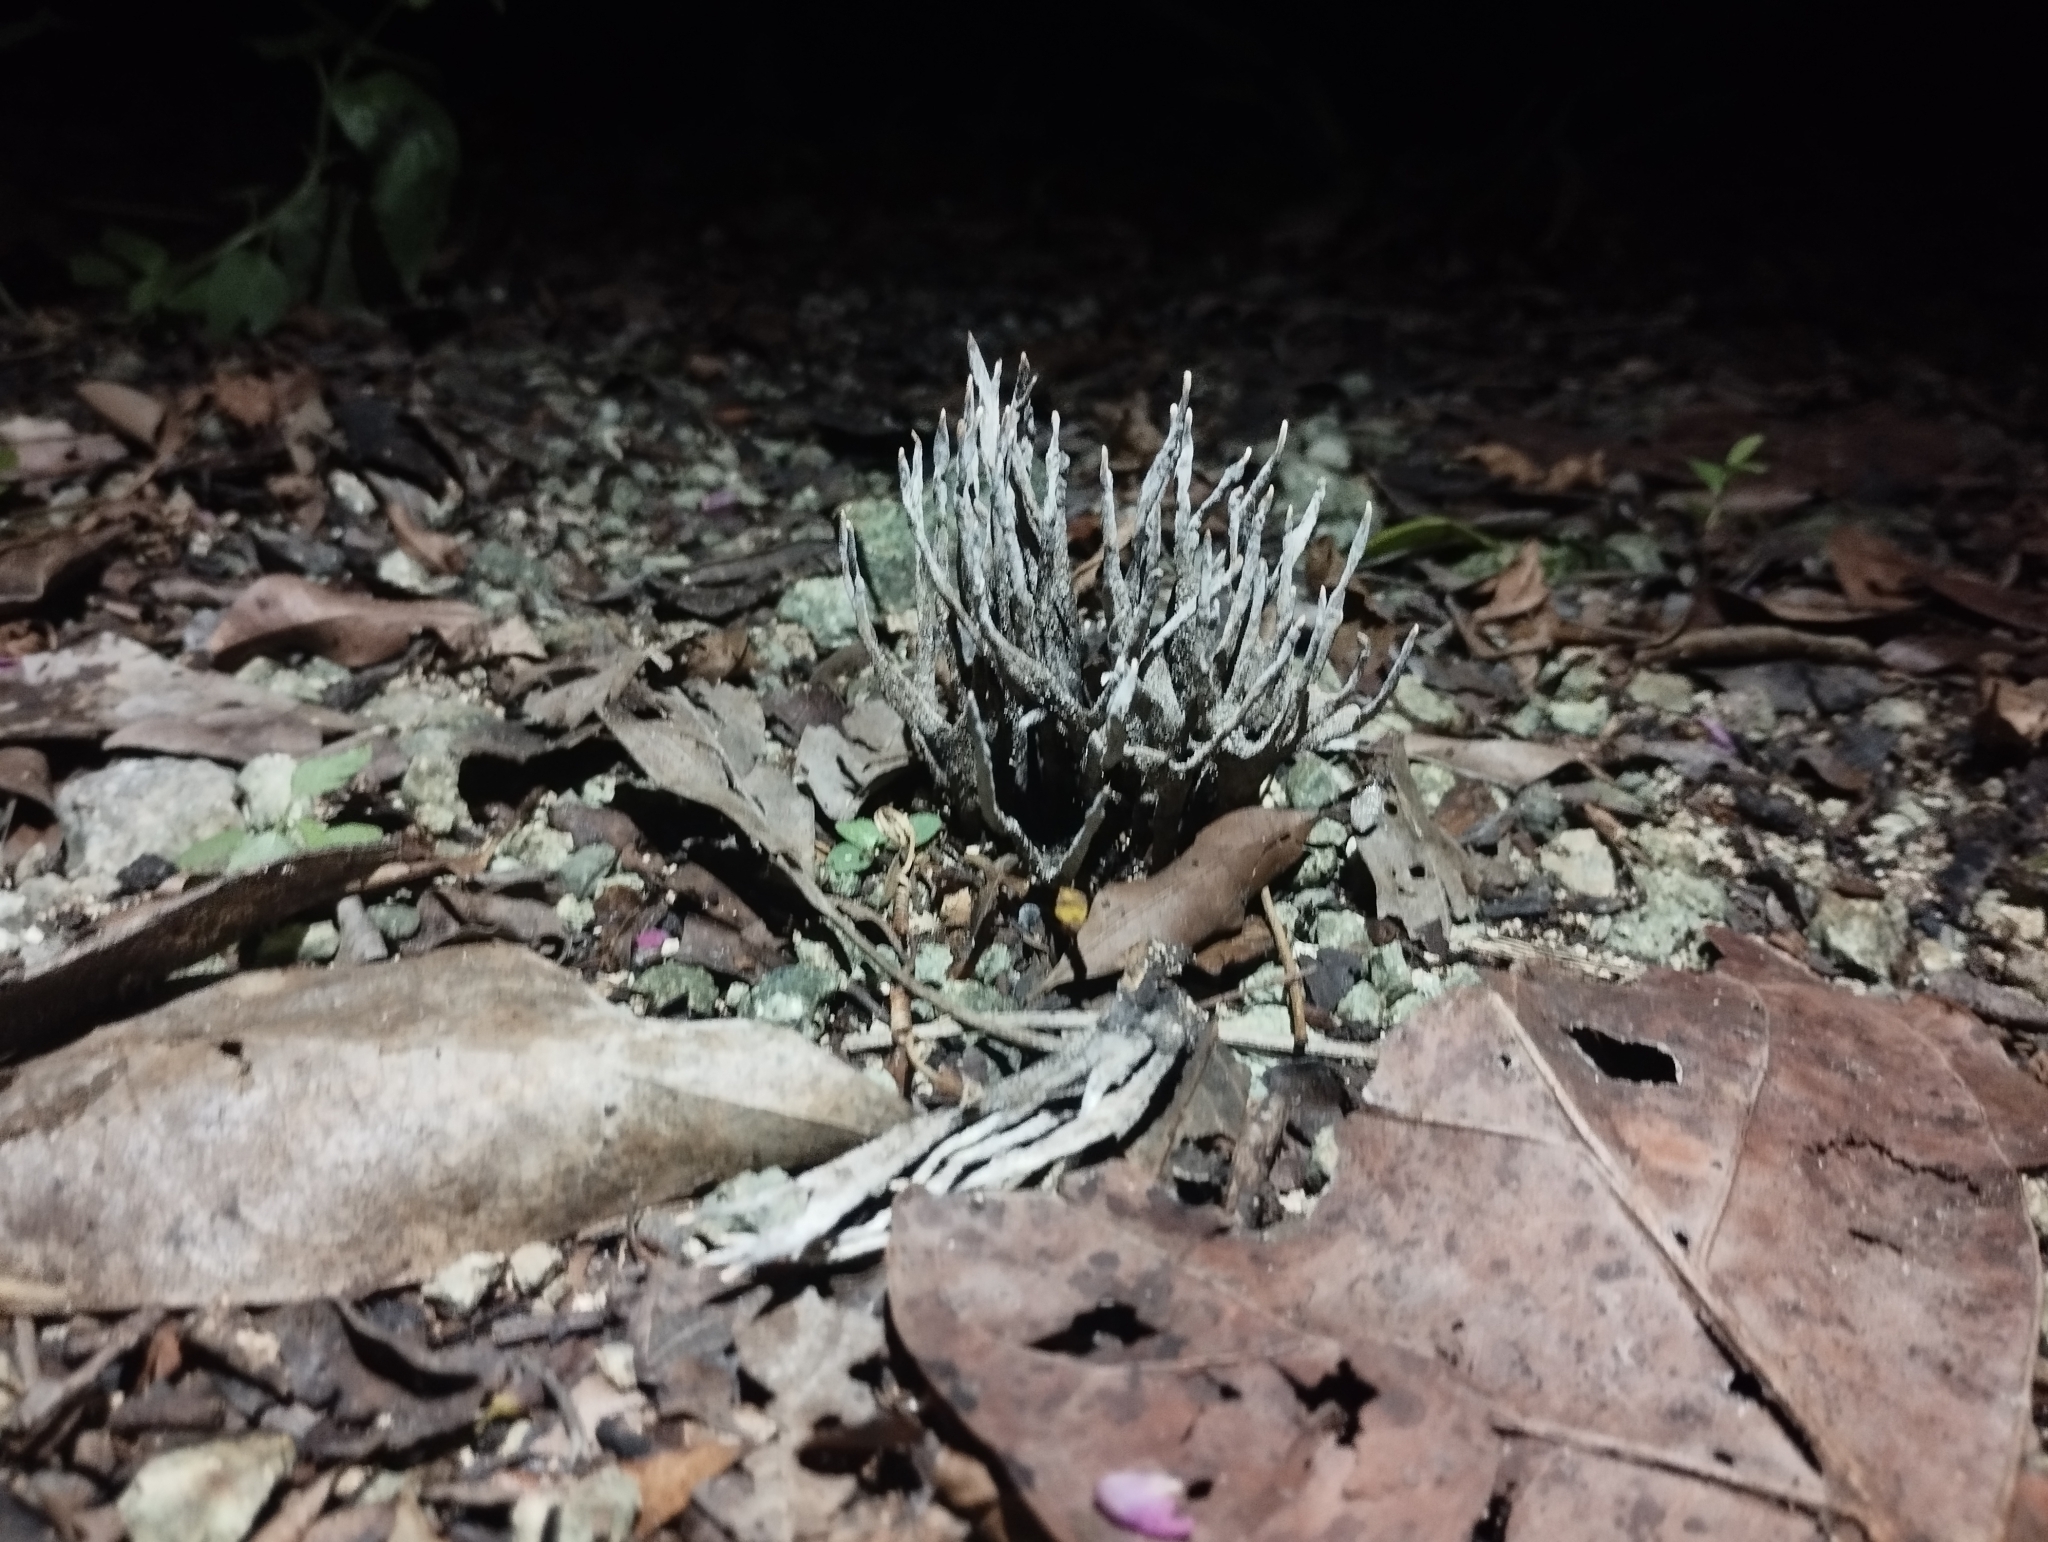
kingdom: Fungi
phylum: Ascomycota
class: Sordariomycetes
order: Xylariales
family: Xylariaceae
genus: Xylaria
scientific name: Xylaria hypoxylon
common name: Candle-snuff fungus
